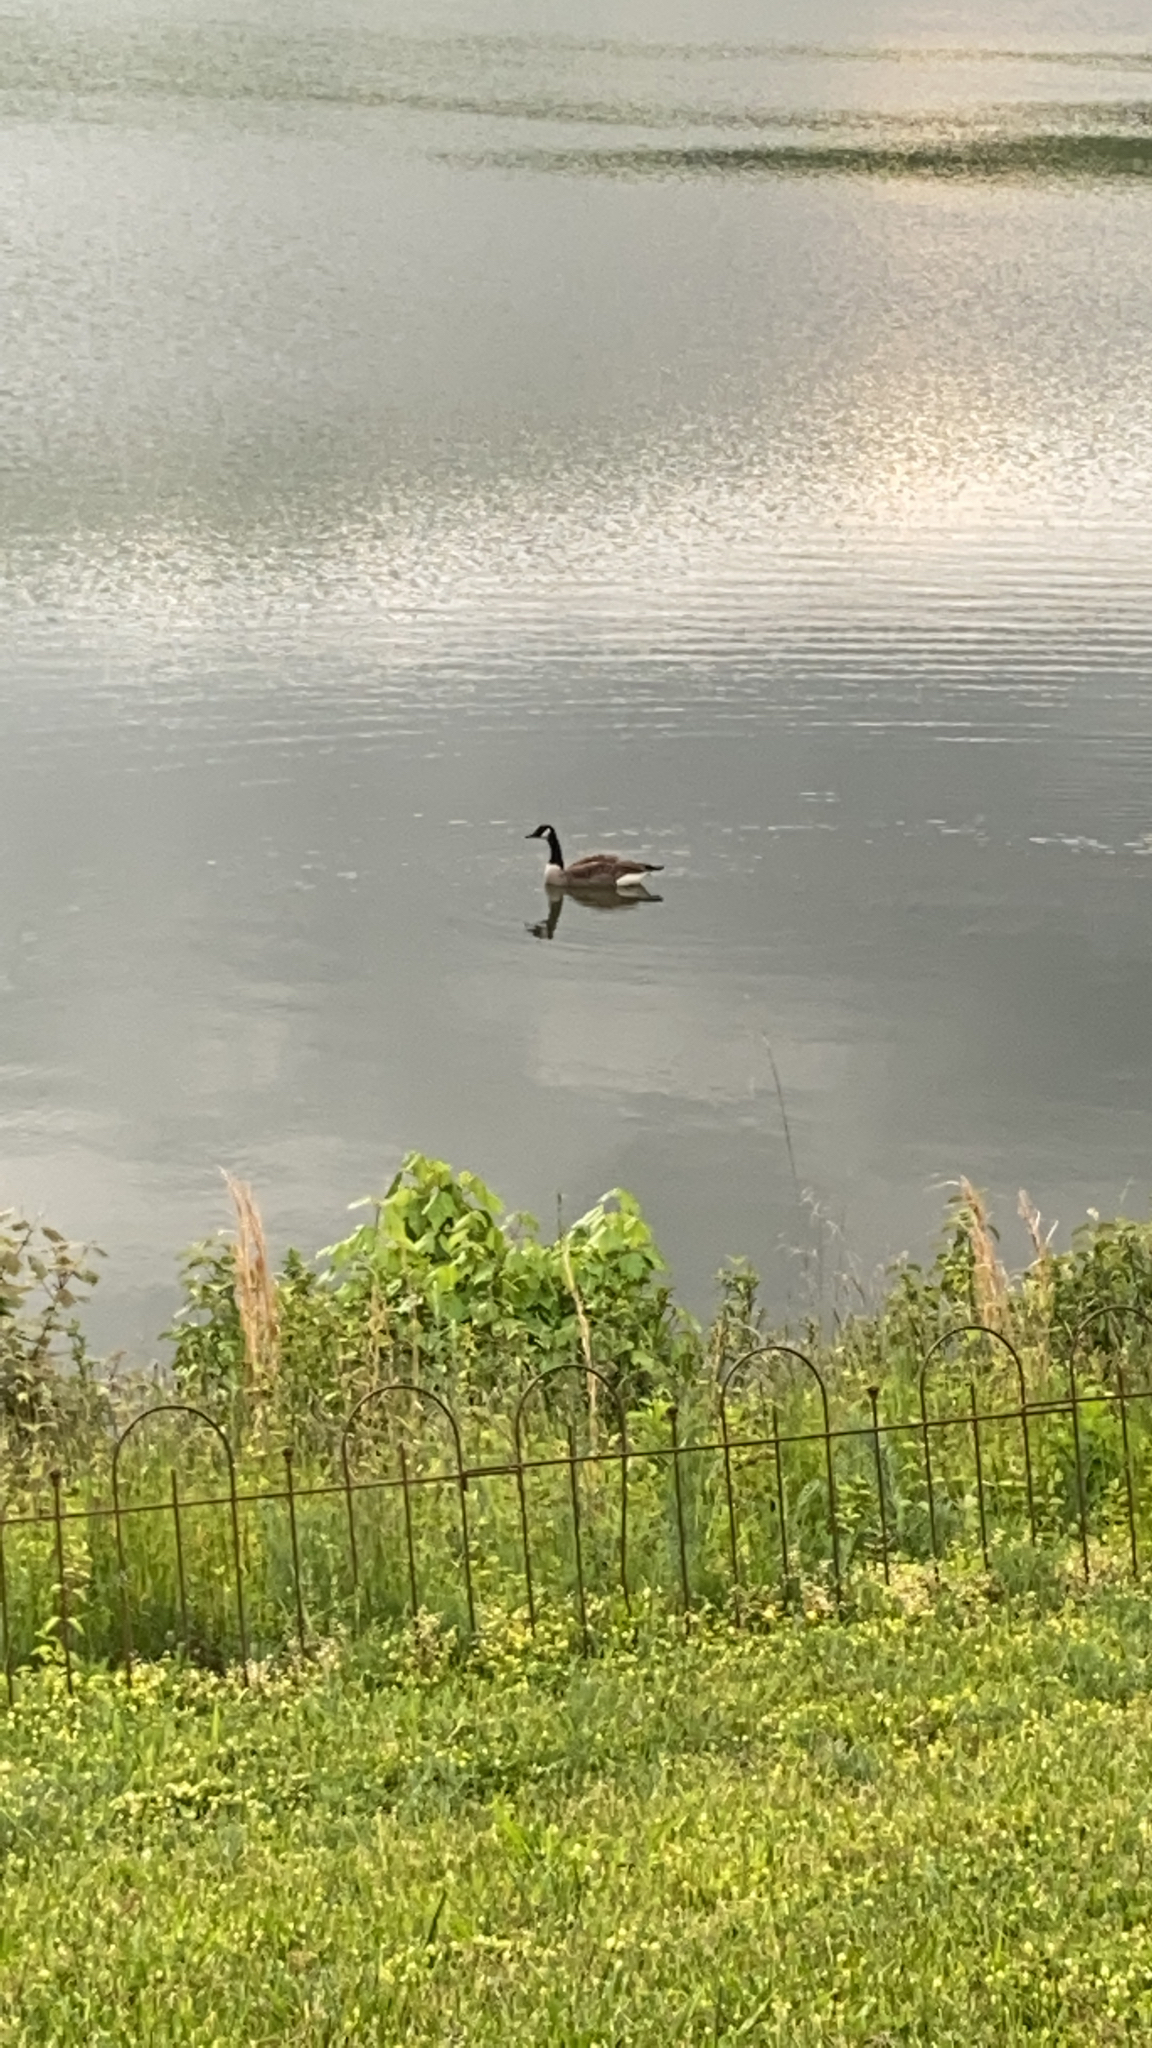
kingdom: Animalia
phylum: Chordata
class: Aves
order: Anseriformes
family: Anatidae
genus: Branta
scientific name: Branta canadensis
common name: Canada goose
